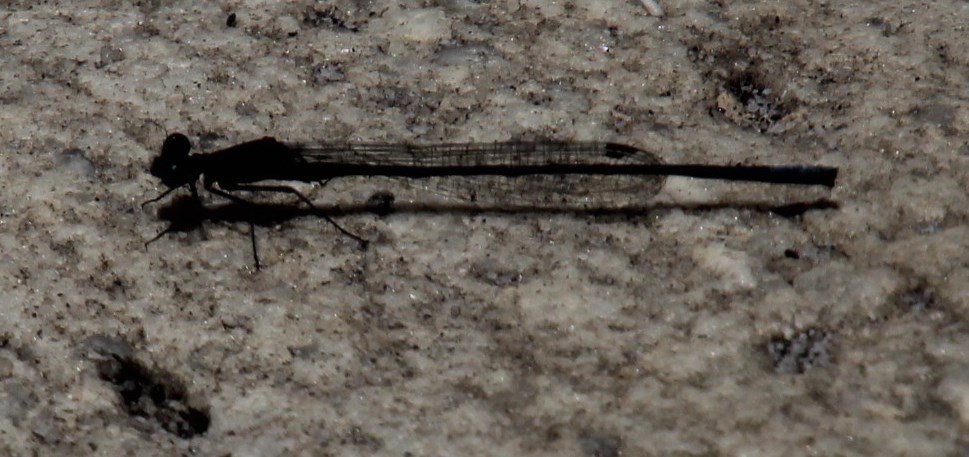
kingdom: Animalia
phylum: Arthropoda
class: Insecta
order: Odonata
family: Platycnemididae
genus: Elattoneura
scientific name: Elattoneura frenulata
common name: Sooty threadtail
